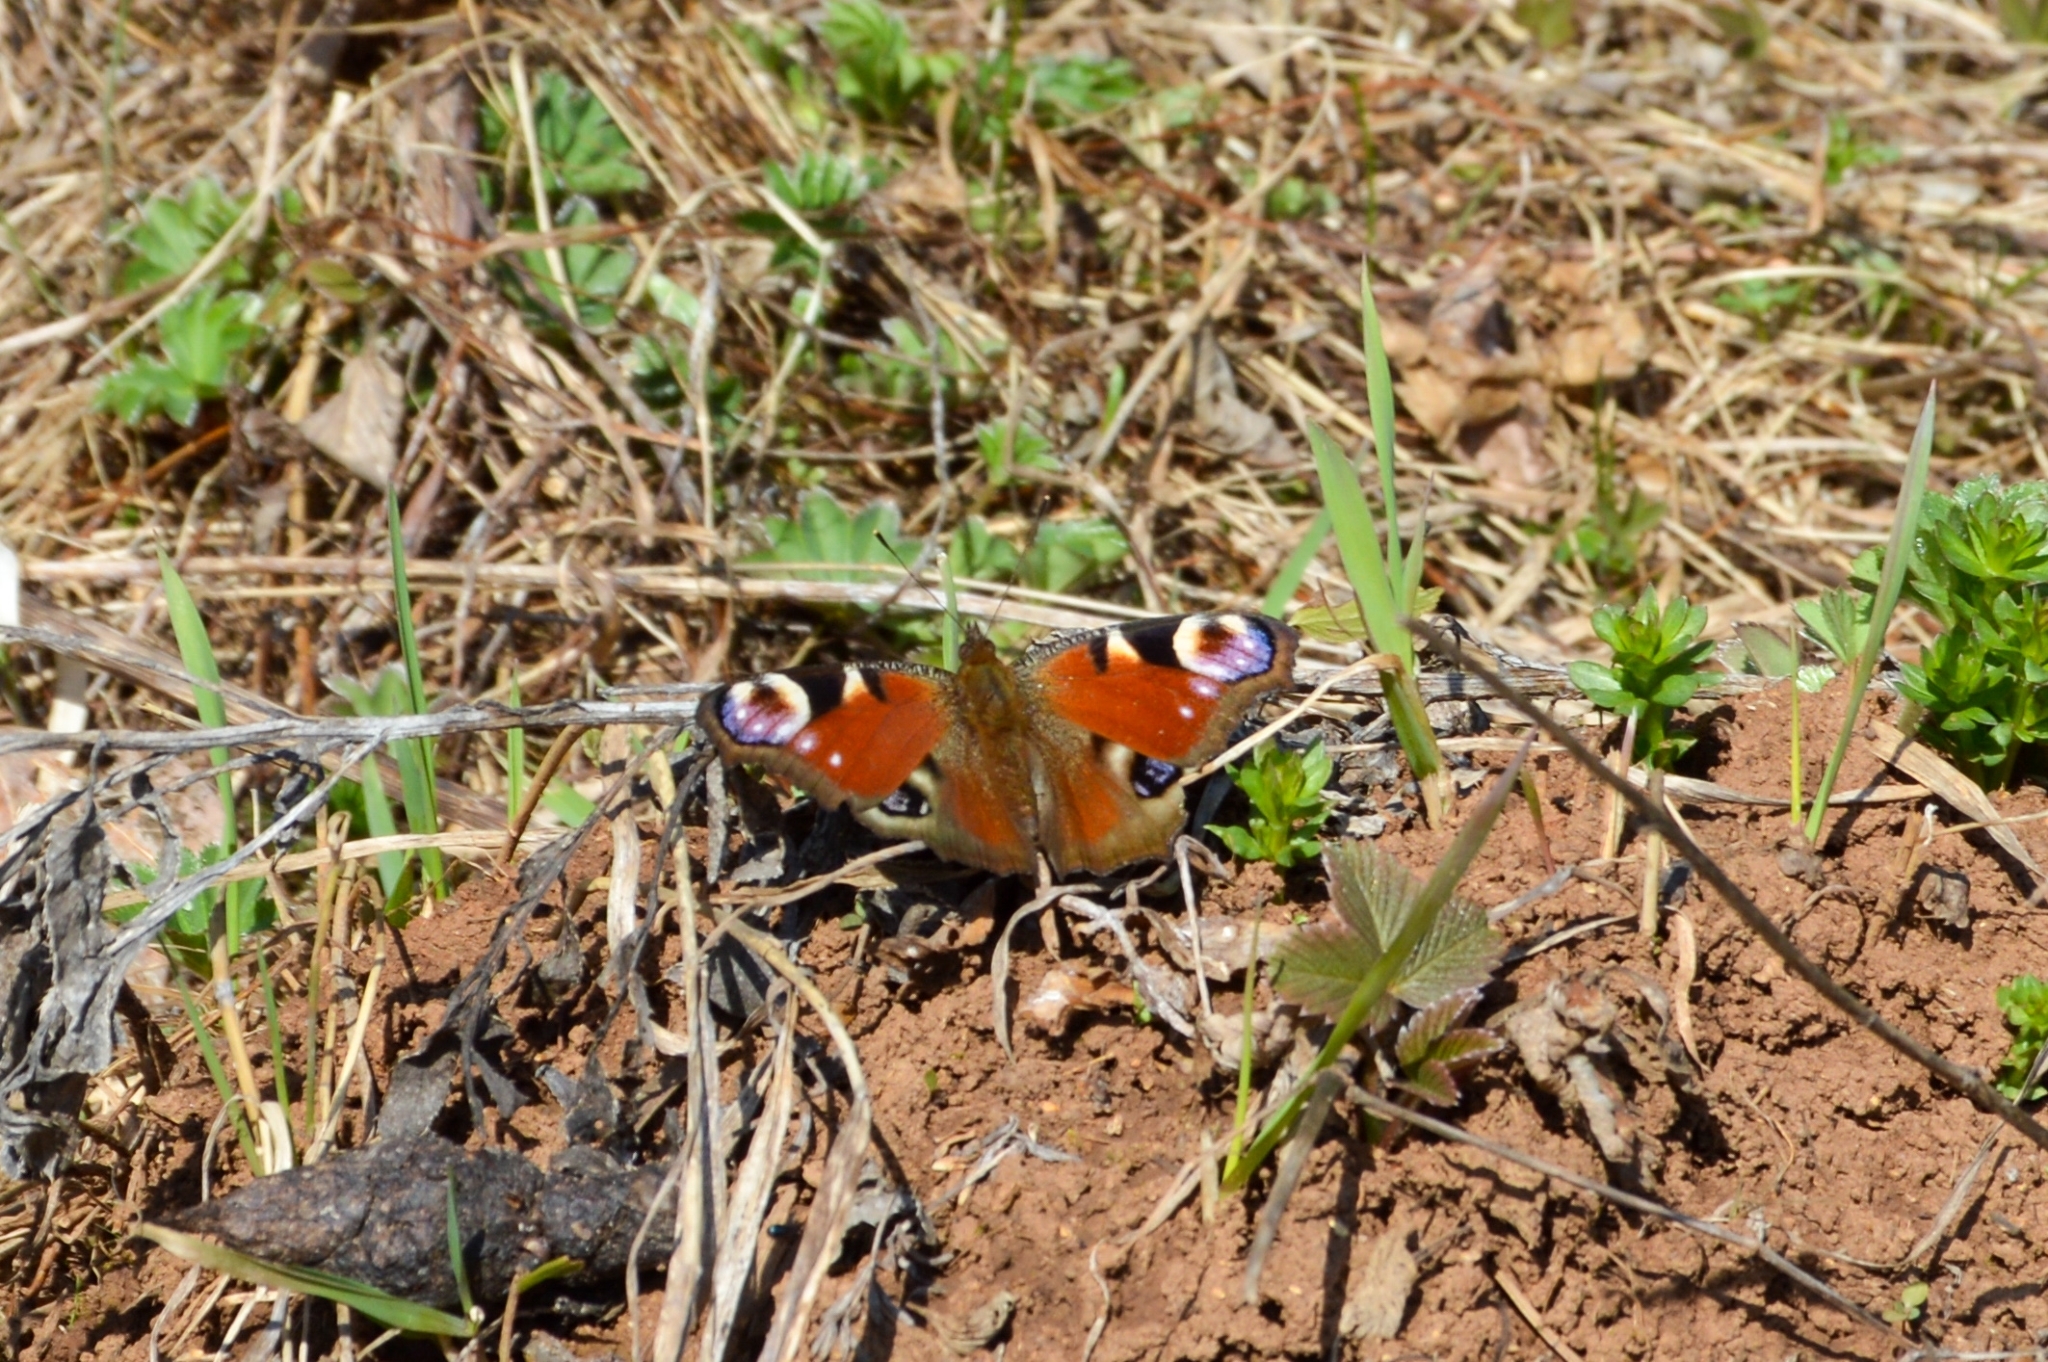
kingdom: Animalia
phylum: Arthropoda
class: Insecta
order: Lepidoptera
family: Nymphalidae
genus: Aglais
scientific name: Aglais io
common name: Peacock
